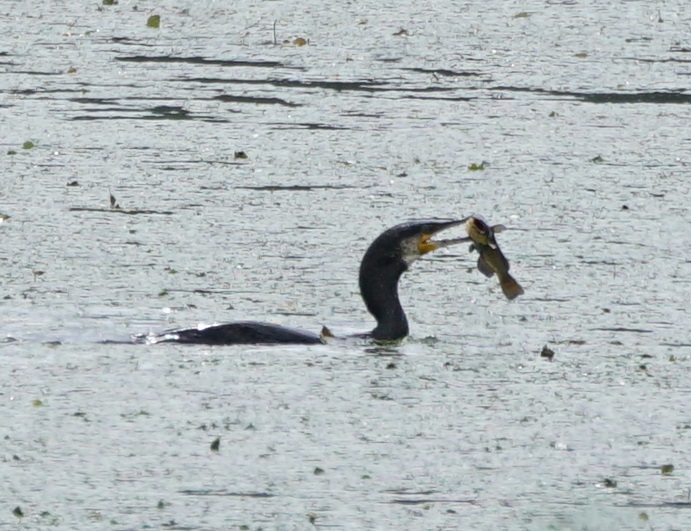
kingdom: Animalia
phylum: Chordata
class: Aves
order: Suliformes
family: Phalacrocoracidae
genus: Phalacrocorax
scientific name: Phalacrocorax carbo
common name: Great cormorant
